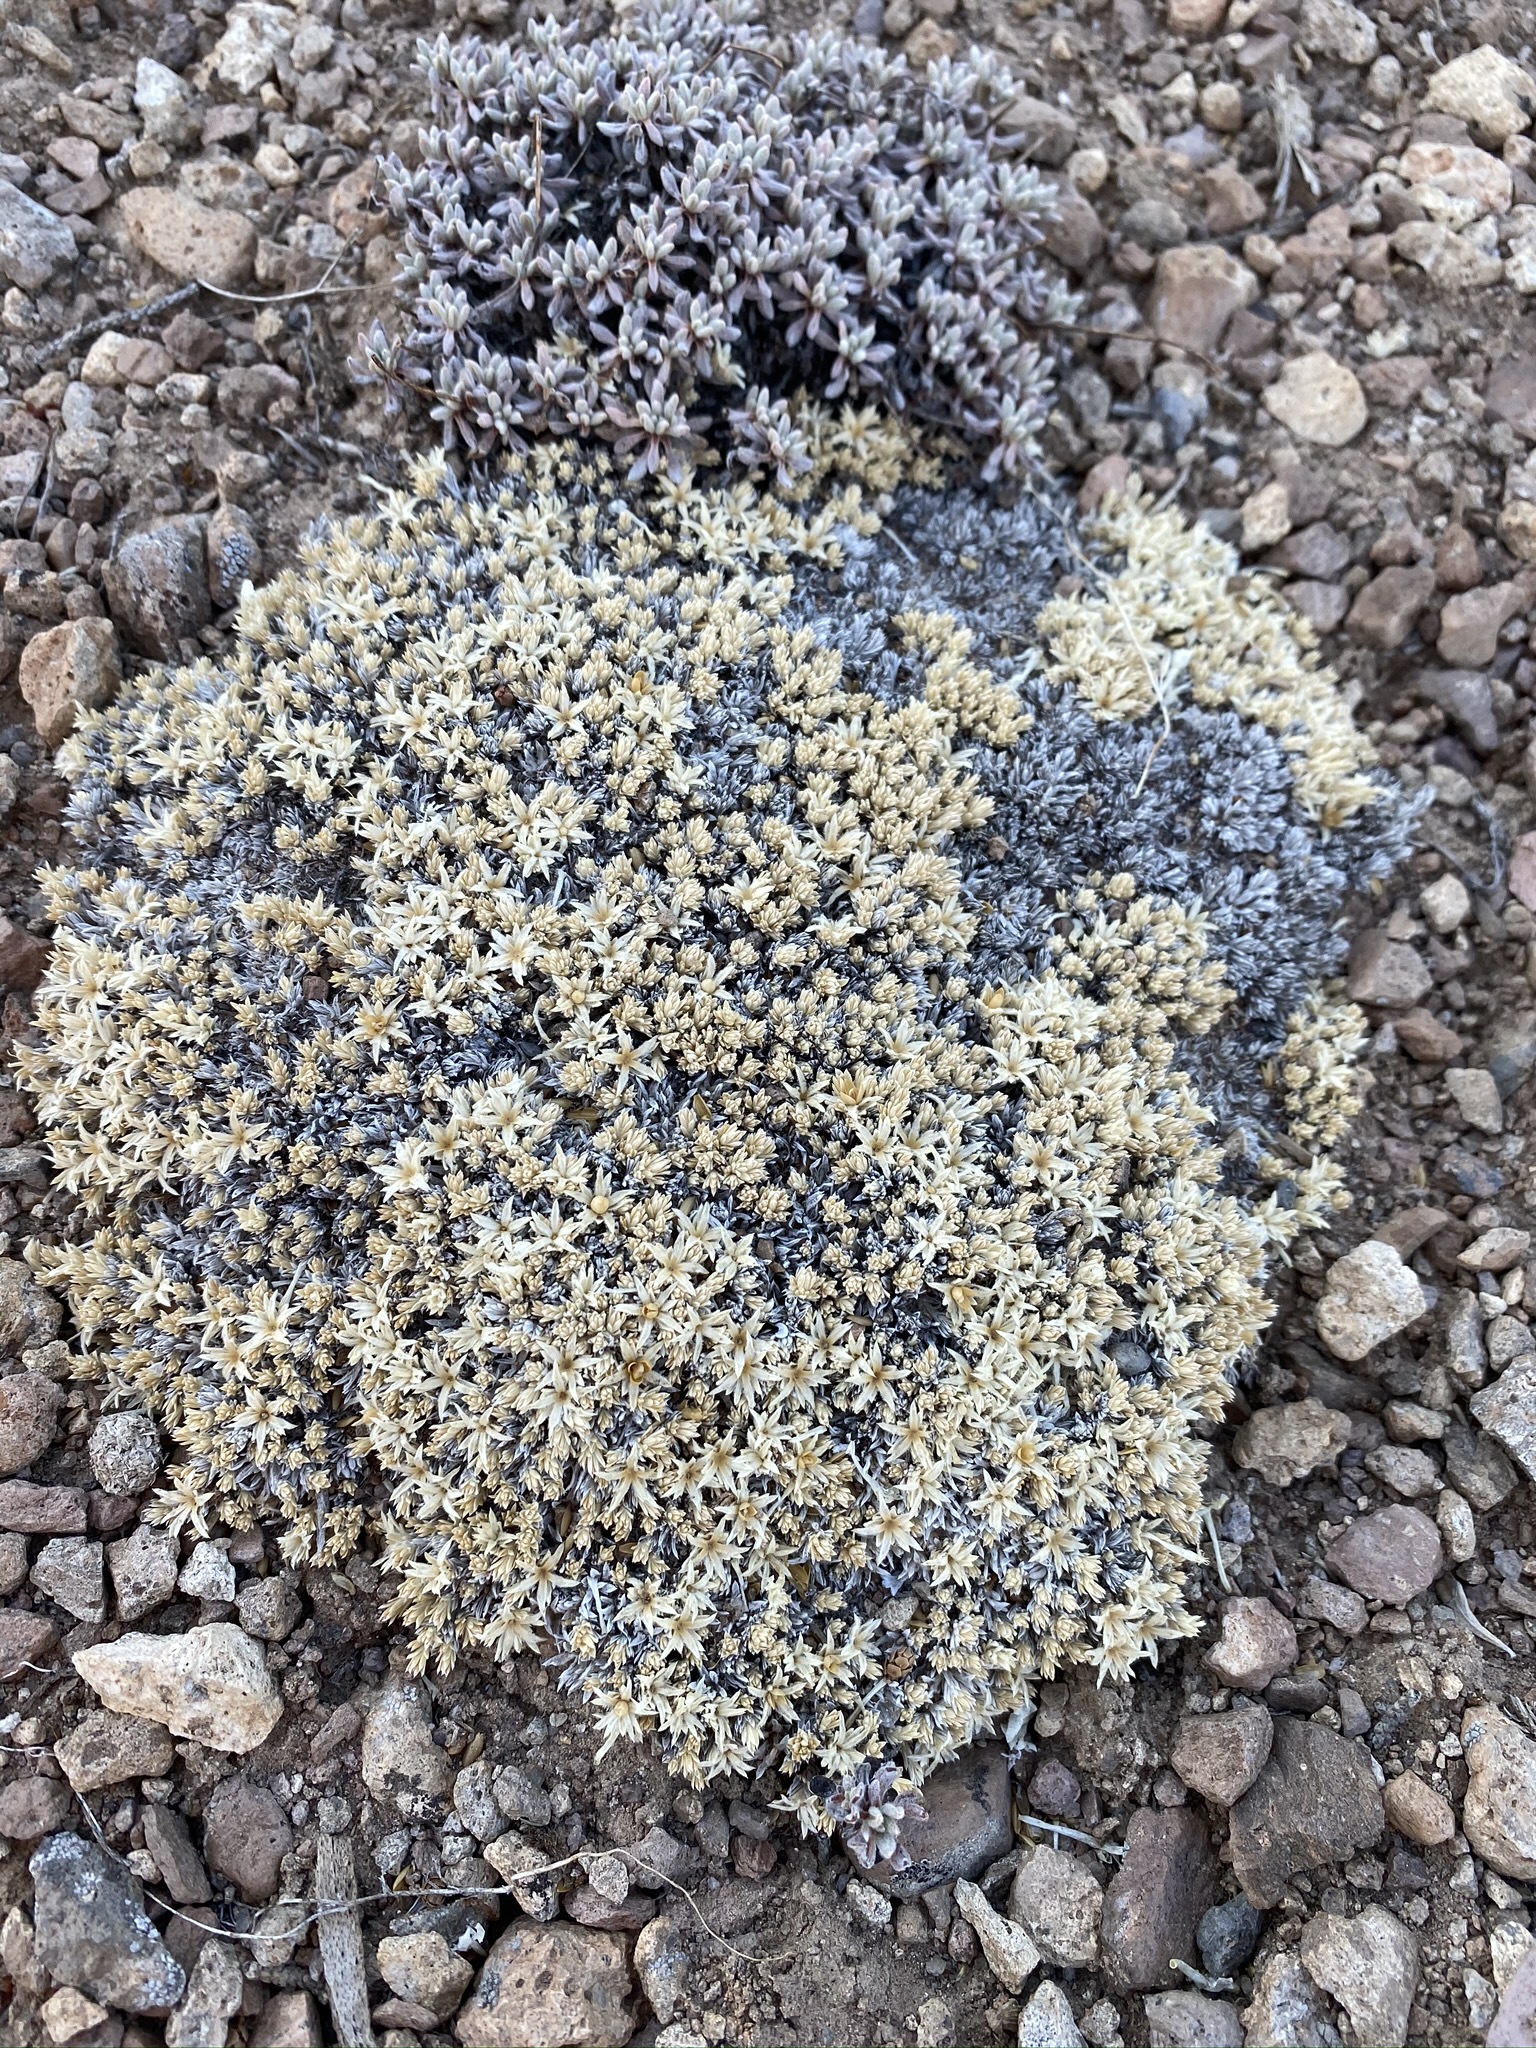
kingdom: Plantae
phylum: Tracheophyta
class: Magnoliopsida
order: Ericales
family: Polemoniaceae
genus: Phlox
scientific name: Phlox griseola
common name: Gray-leaf phlox
